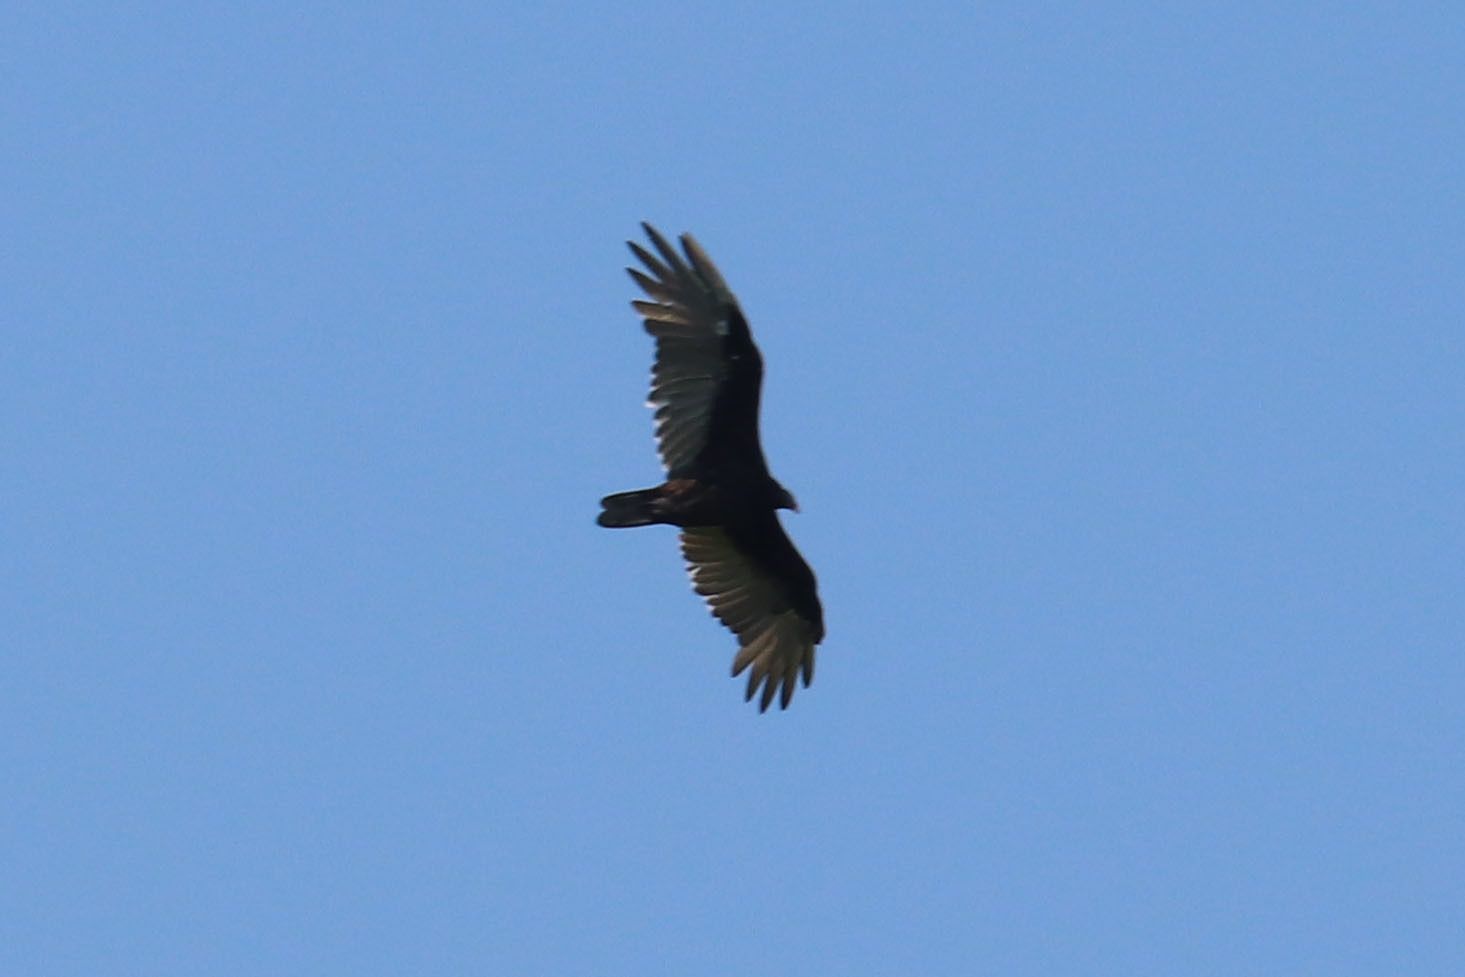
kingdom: Animalia
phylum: Chordata
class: Aves
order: Accipitriformes
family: Cathartidae
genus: Cathartes
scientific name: Cathartes aura
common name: Turkey vulture
